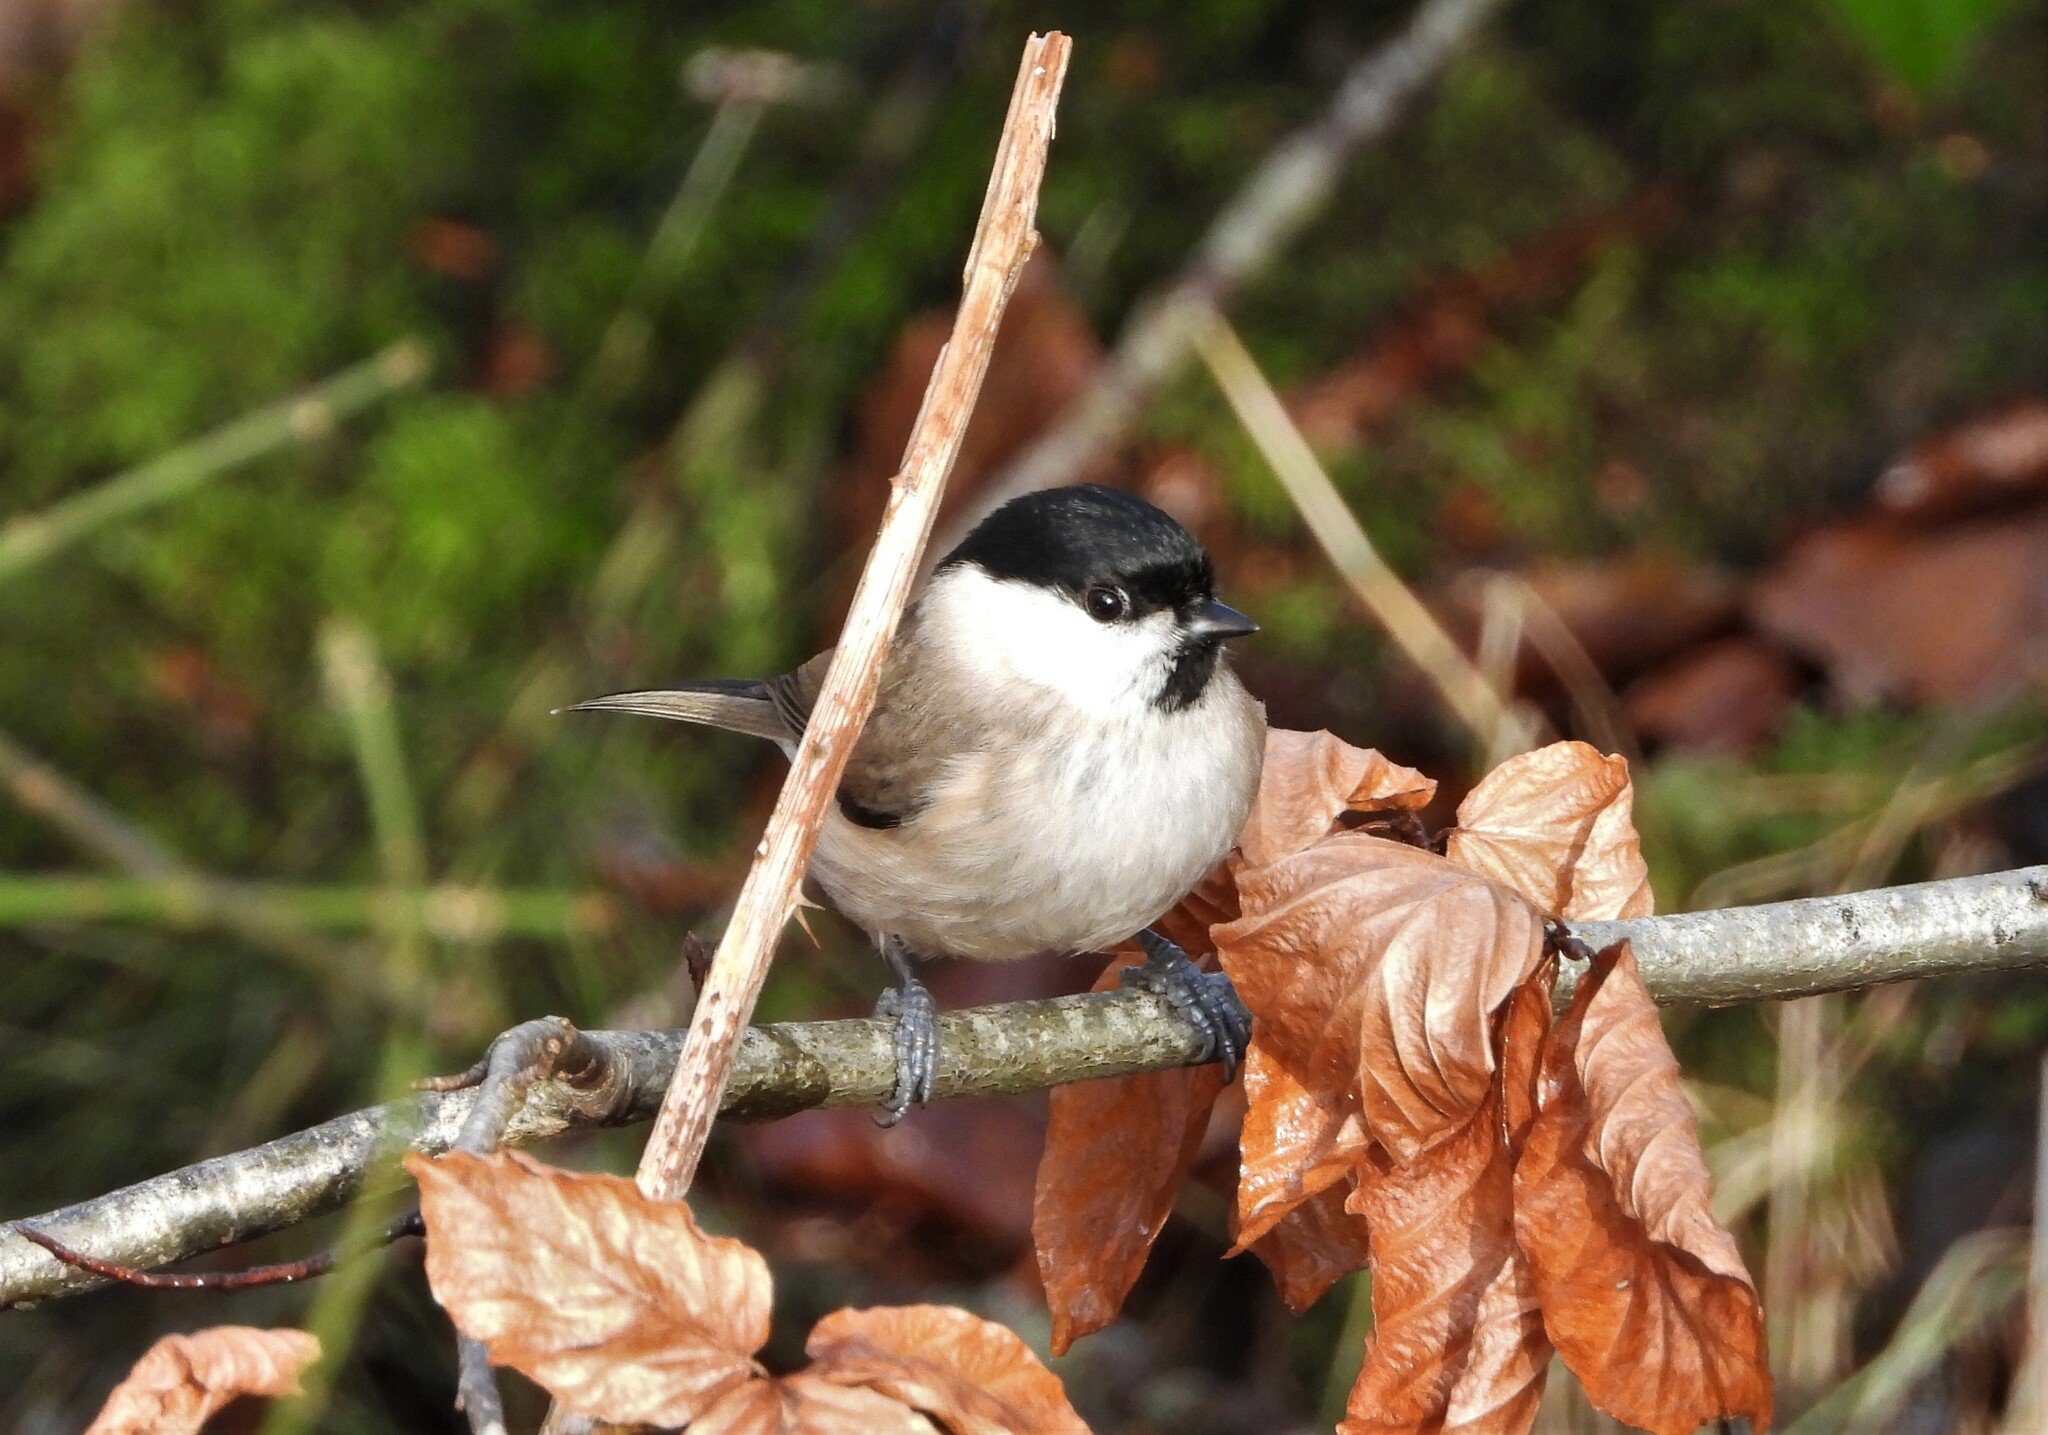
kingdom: Animalia
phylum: Chordata
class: Aves
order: Passeriformes
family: Paridae
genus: Poecile
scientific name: Poecile palustris
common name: Marsh tit
